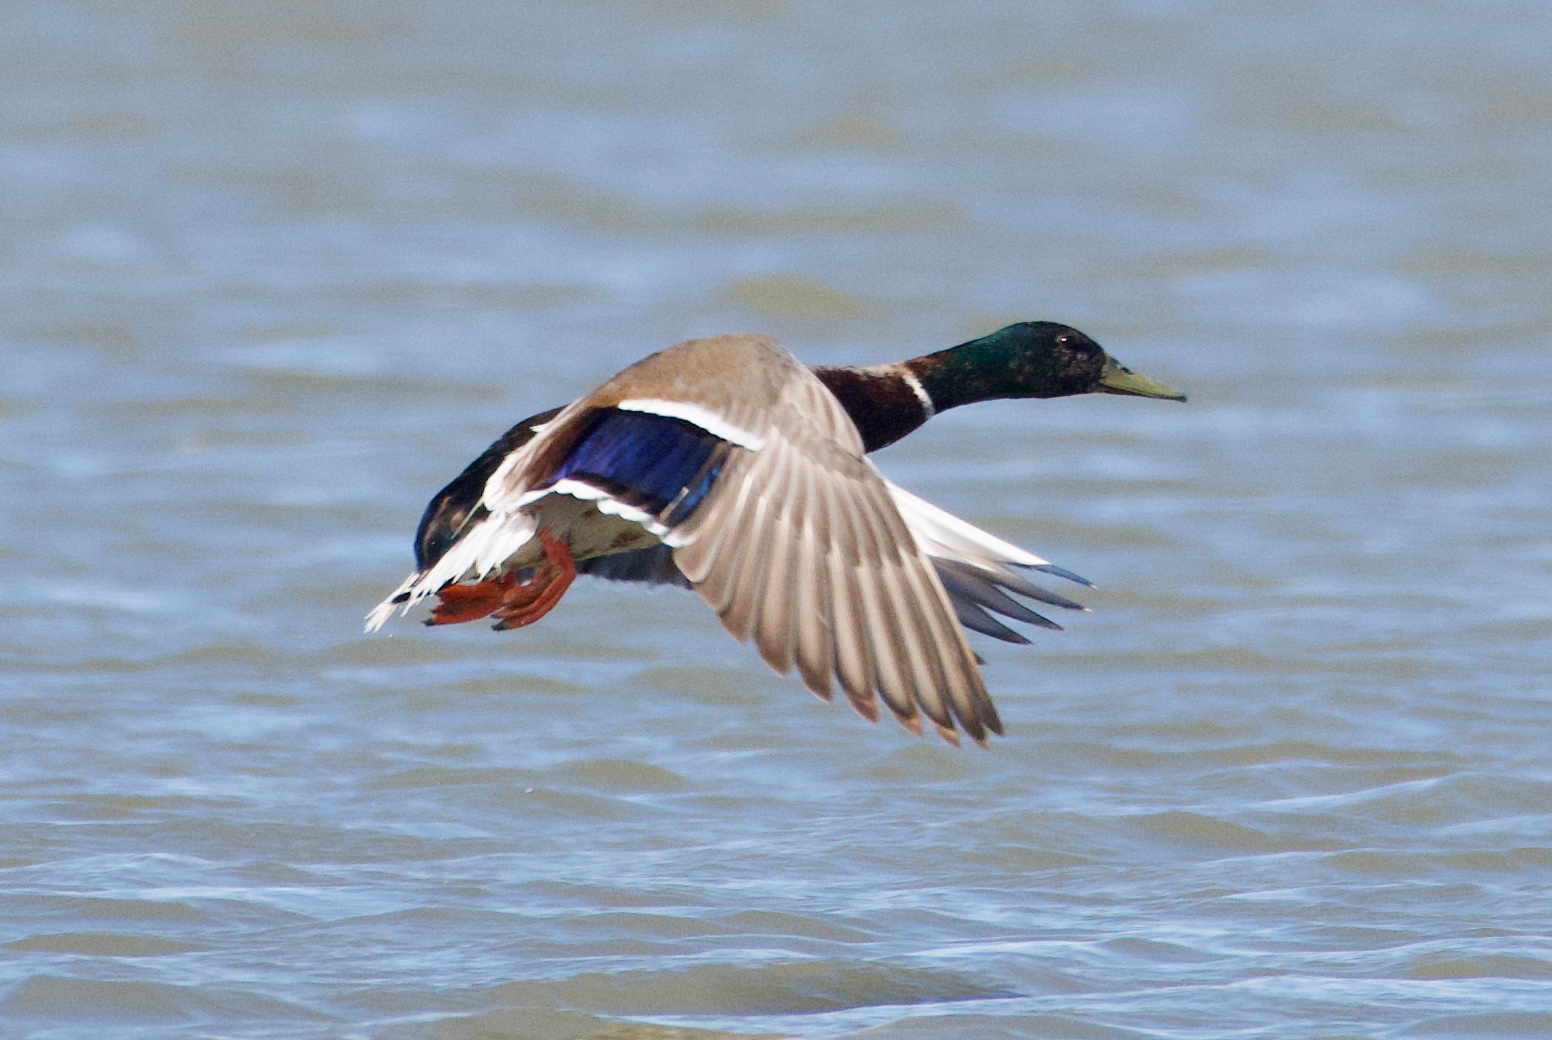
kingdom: Animalia
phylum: Chordata
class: Aves
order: Anseriformes
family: Anatidae
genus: Anas
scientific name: Anas platyrhynchos
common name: Mallard
